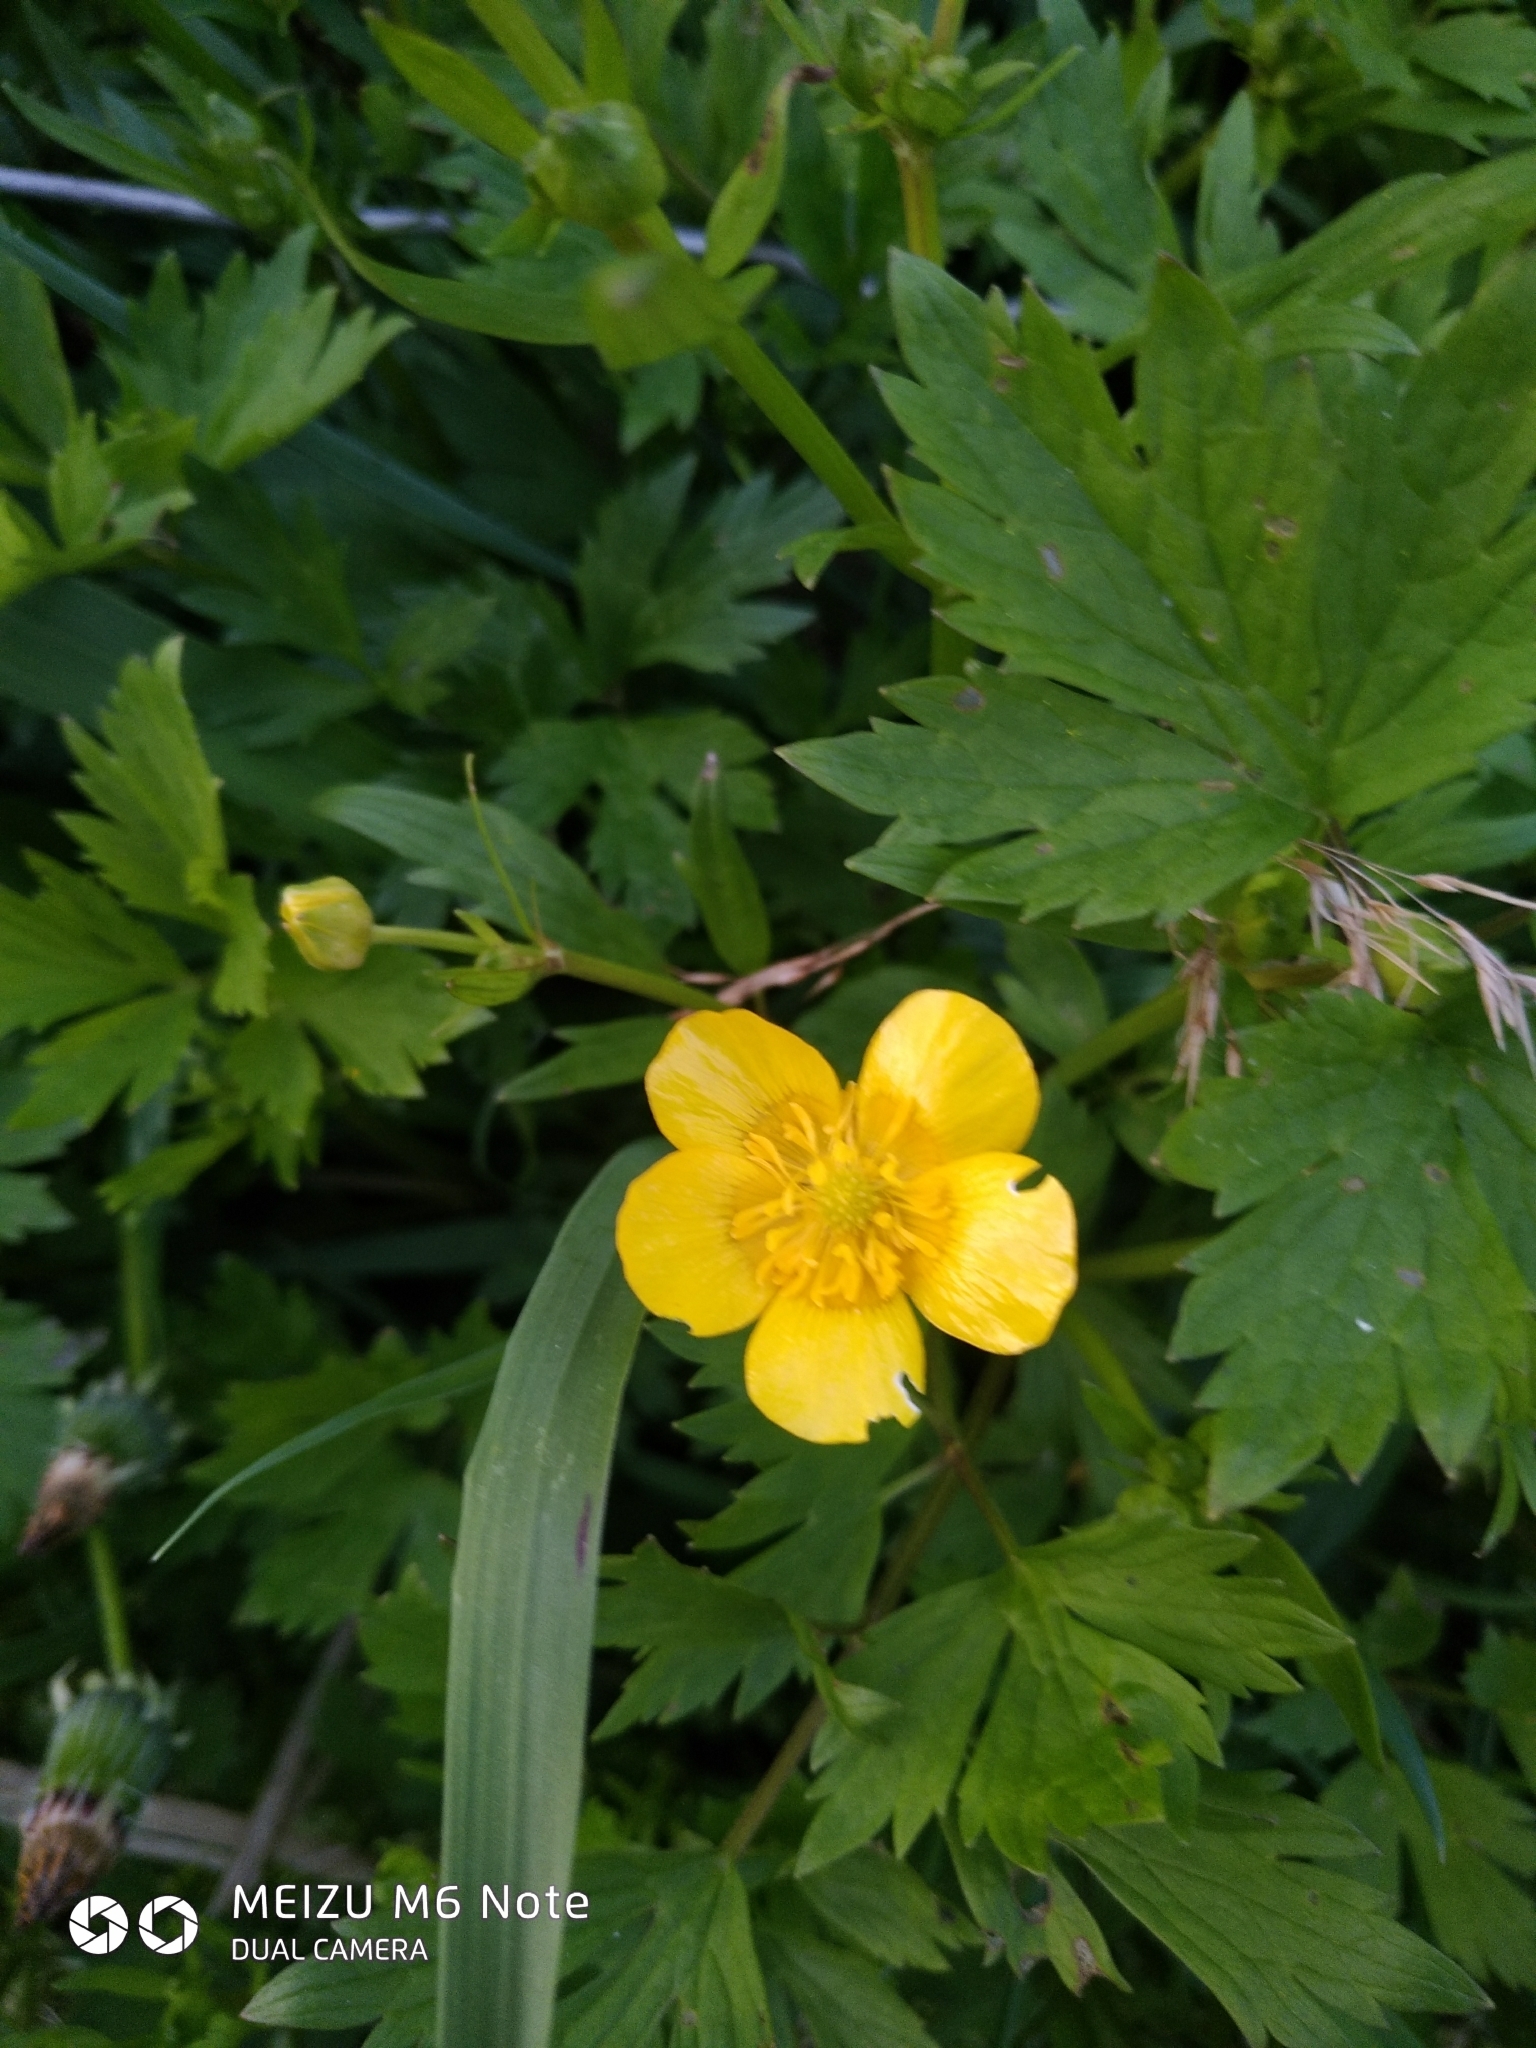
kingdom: Plantae
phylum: Tracheophyta
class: Magnoliopsida
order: Ranunculales
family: Ranunculaceae
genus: Ranunculus
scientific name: Ranunculus repens
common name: Creeping buttercup
